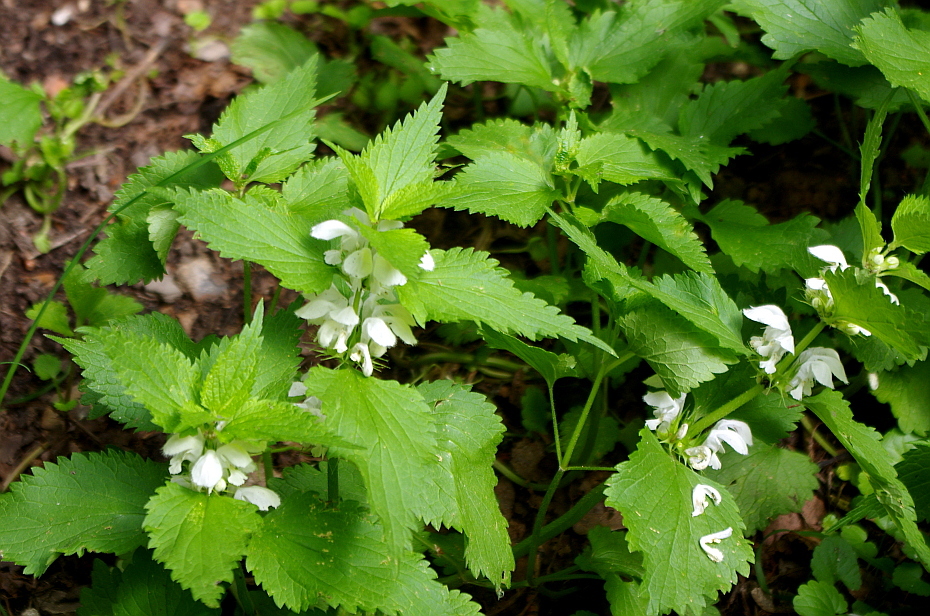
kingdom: Plantae
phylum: Tracheophyta
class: Magnoliopsida
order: Lamiales
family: Lamiaceae
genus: Lamium
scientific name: Lamium album
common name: White dead-nettle
